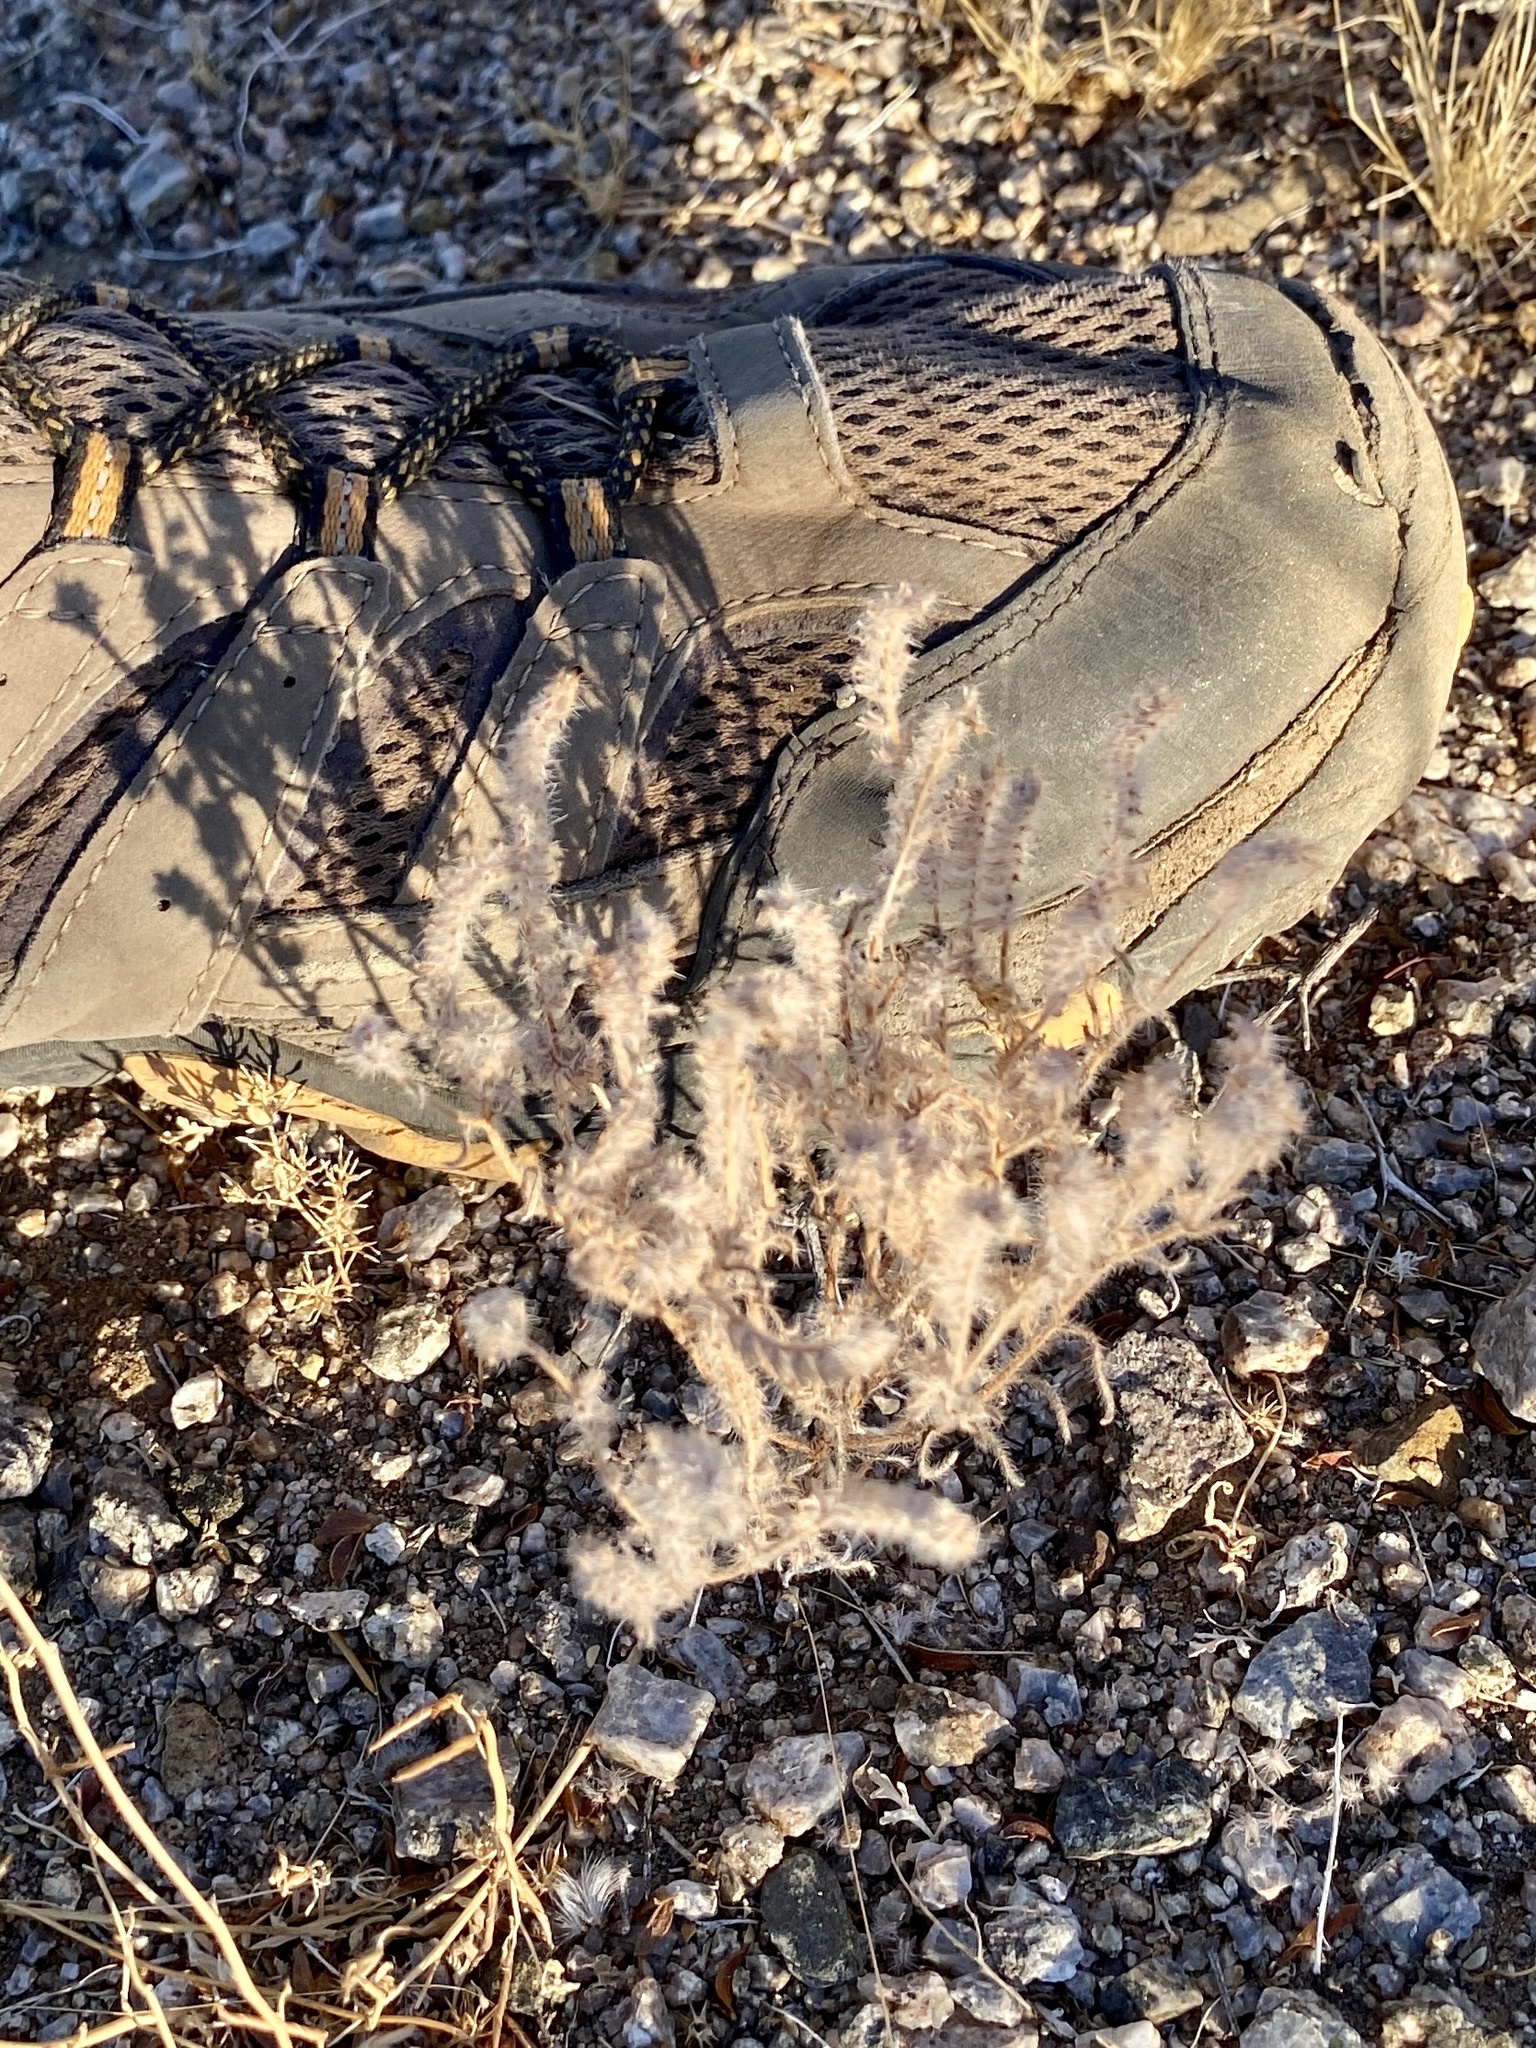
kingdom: Plantae
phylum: Tracheophyta
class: Magnoliopsida
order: Boraginales
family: Boraginaceae
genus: Amsinckia
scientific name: Amsinckia tessellata
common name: Tessellate fiddleneck
